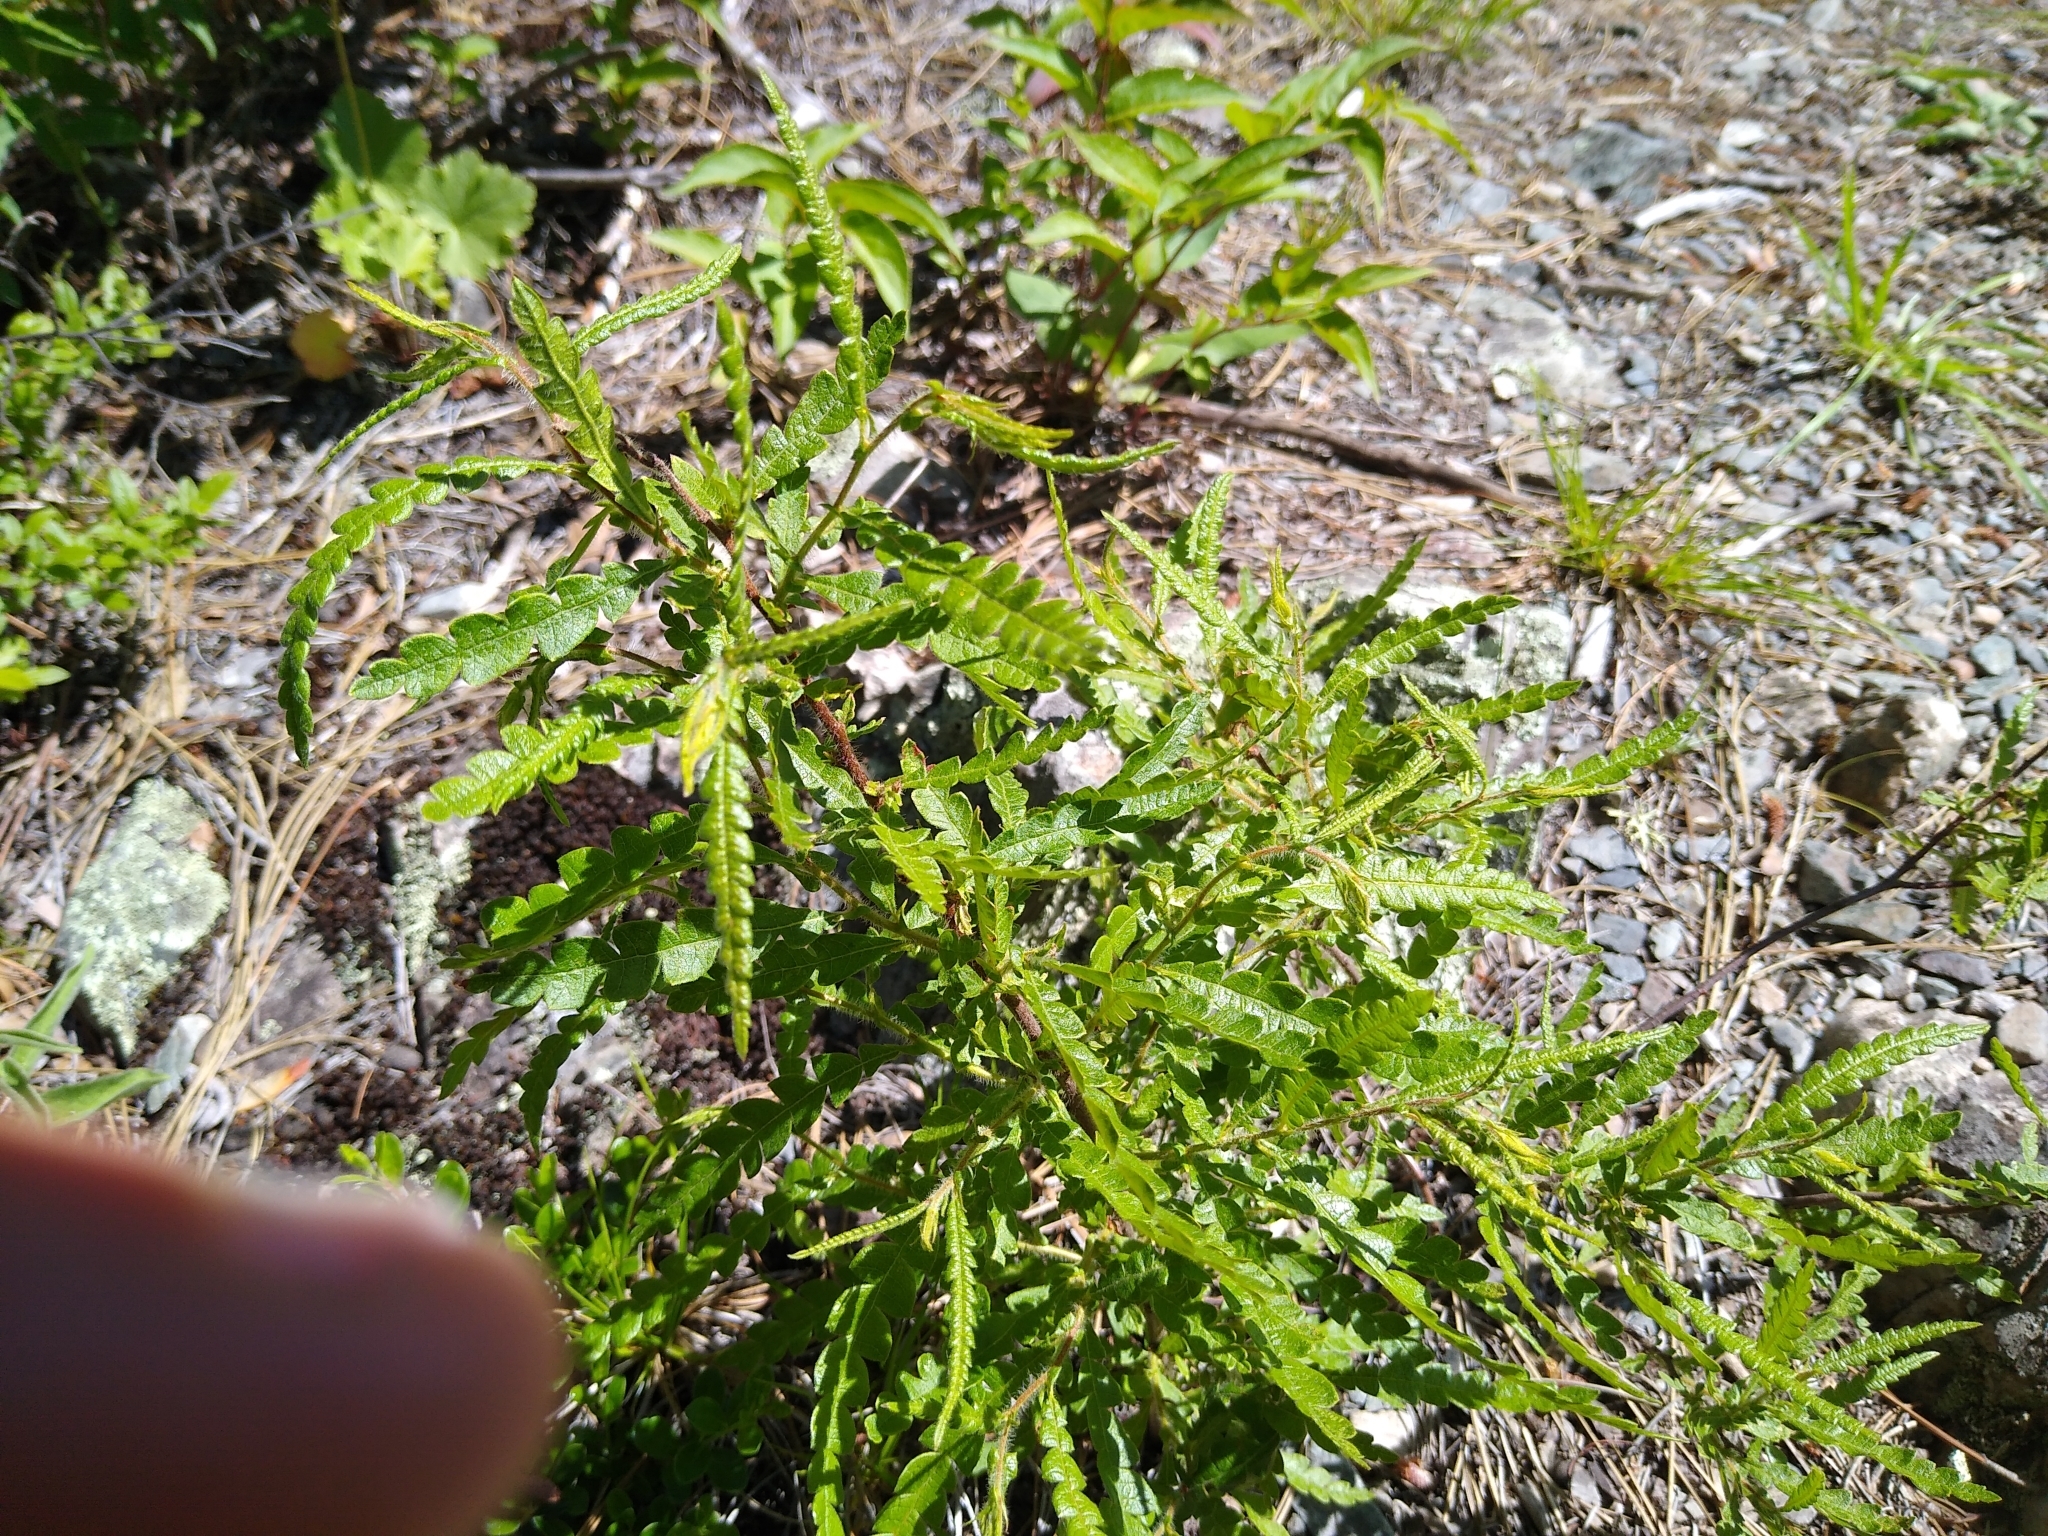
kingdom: Plantae
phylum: Tracheophyta
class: Magnoliopsida
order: Fagales
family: Myricaceae
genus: Comptonia
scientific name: Comptonia peregrina
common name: Sweet-fern
